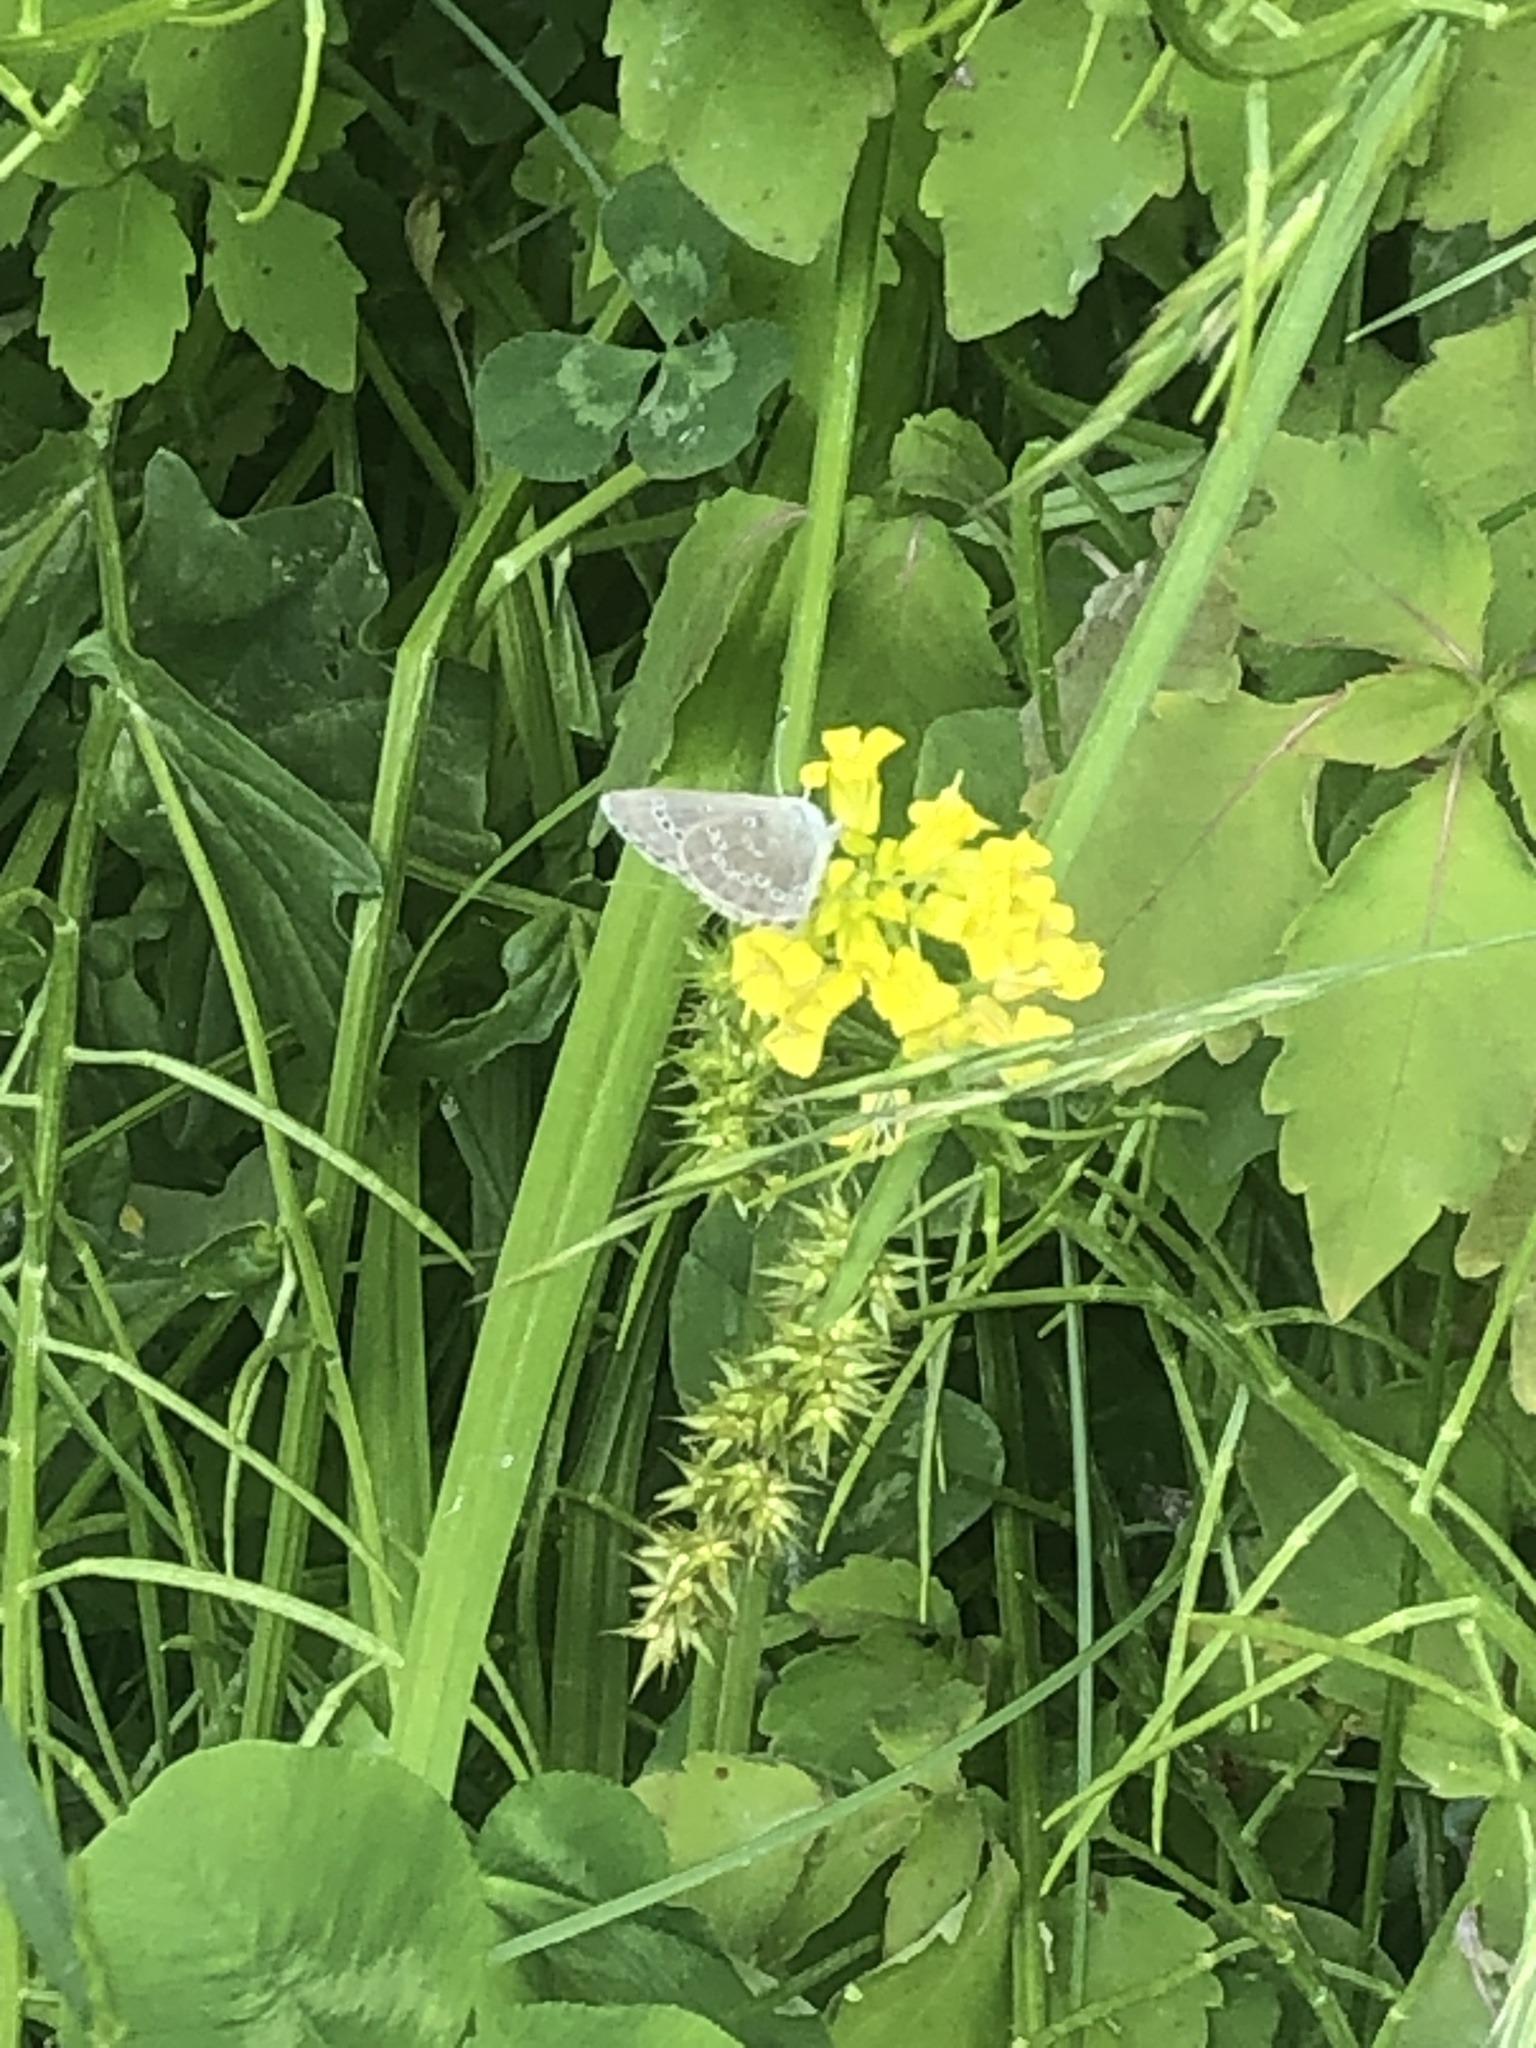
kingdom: Animalia
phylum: Arthropoda
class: Insecta
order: Lepidoptera
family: Lycaenidae
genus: Glaucopsyche
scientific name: Glaucopsyche lygdamus
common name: Silvery blue
